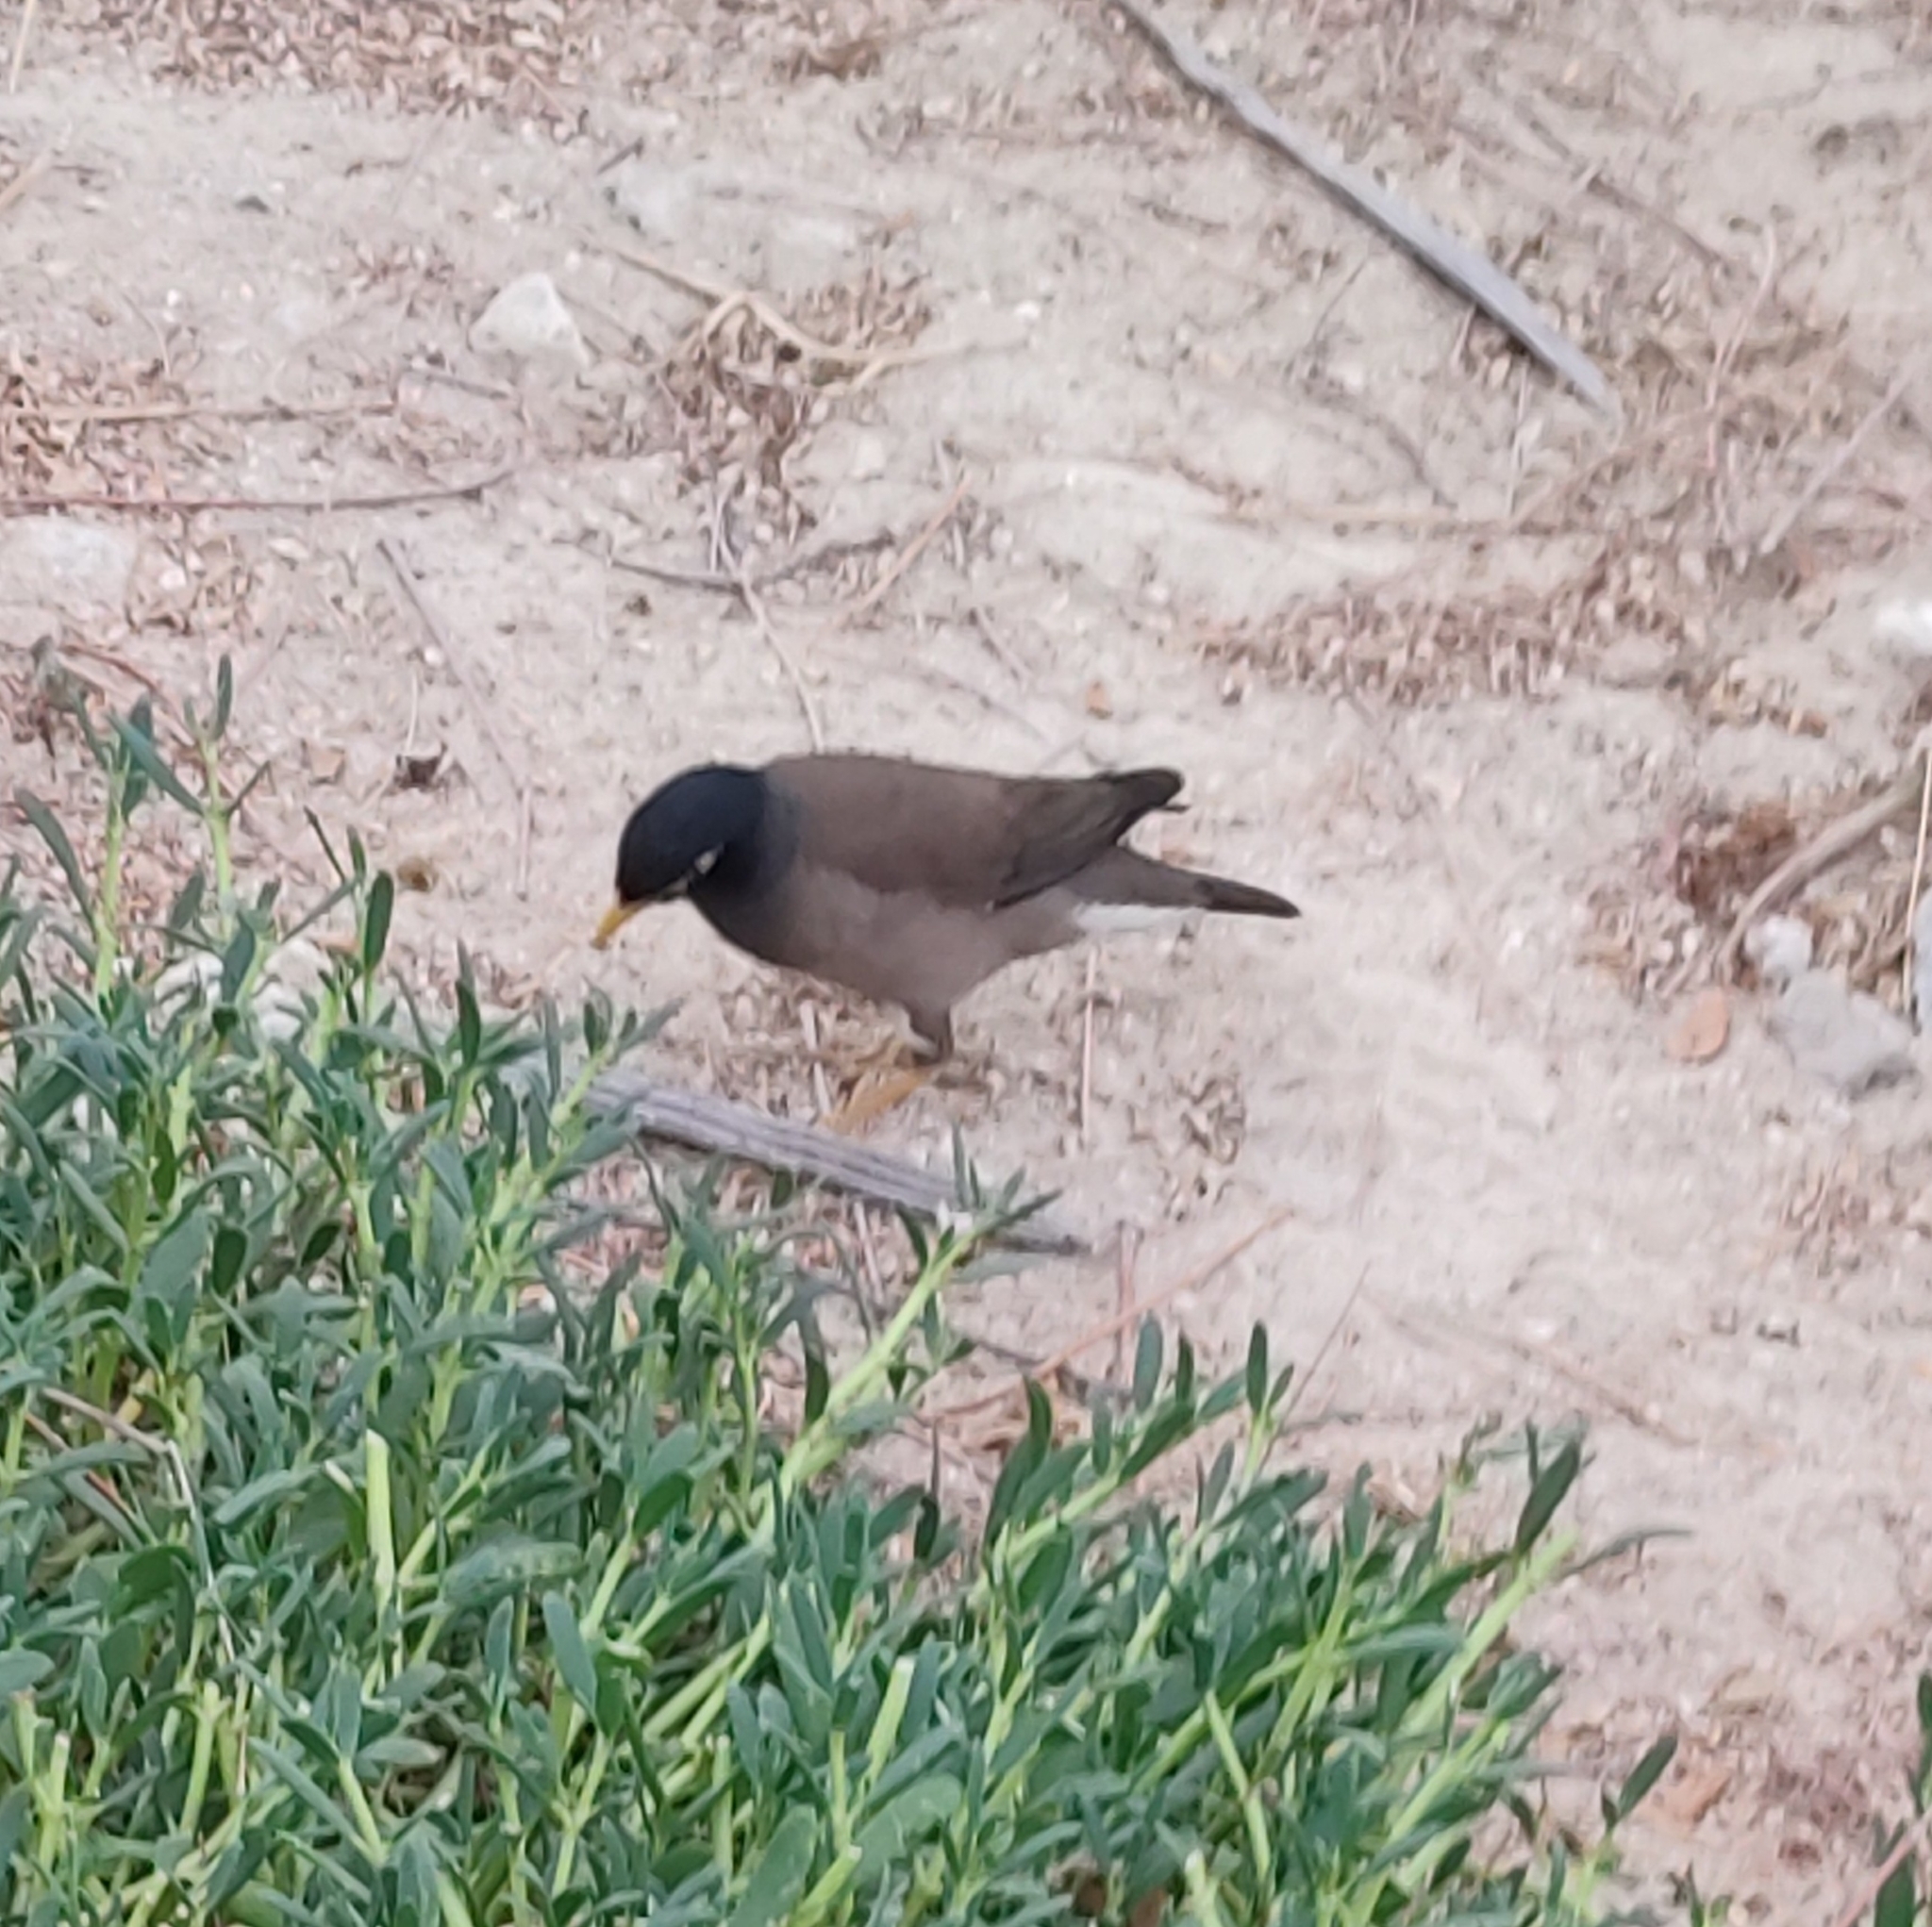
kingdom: Animalia
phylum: Chordata
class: Aves
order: Passeriformes
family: Sturnidae
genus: Acridotheres
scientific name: Acridotheres tristis
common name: Common myna
